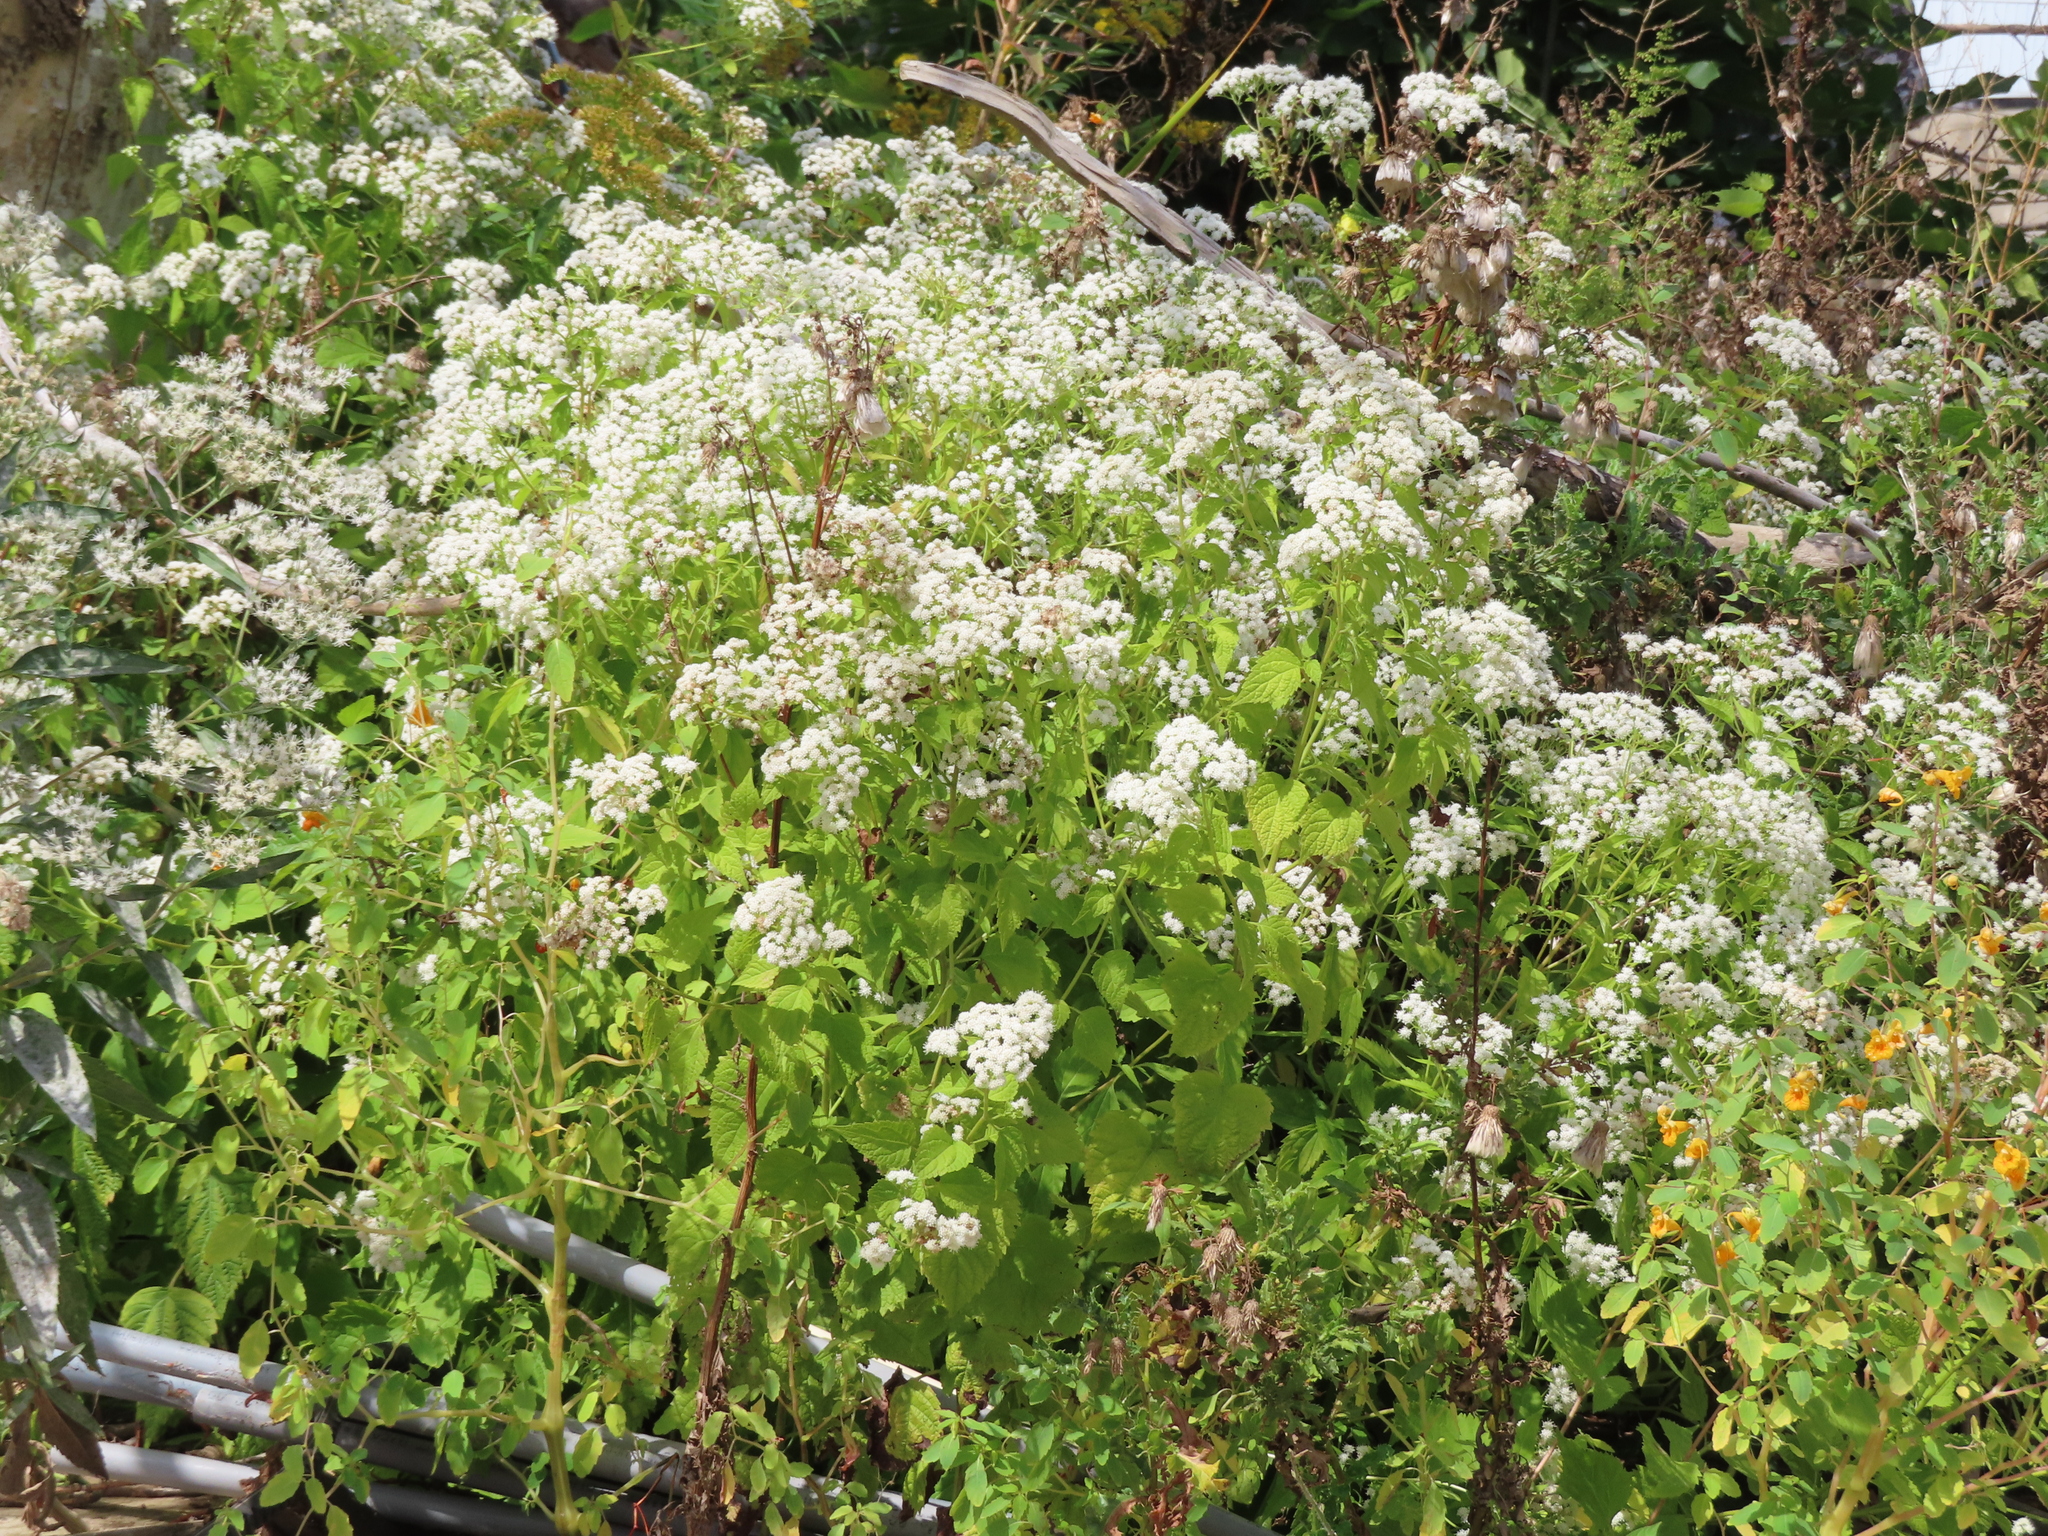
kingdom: Plantae
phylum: Tracheophyta
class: Magnoliopsida
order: Asterales
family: Asteraceae
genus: Ageratina
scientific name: Ageratina altissima
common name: White snakeroot
